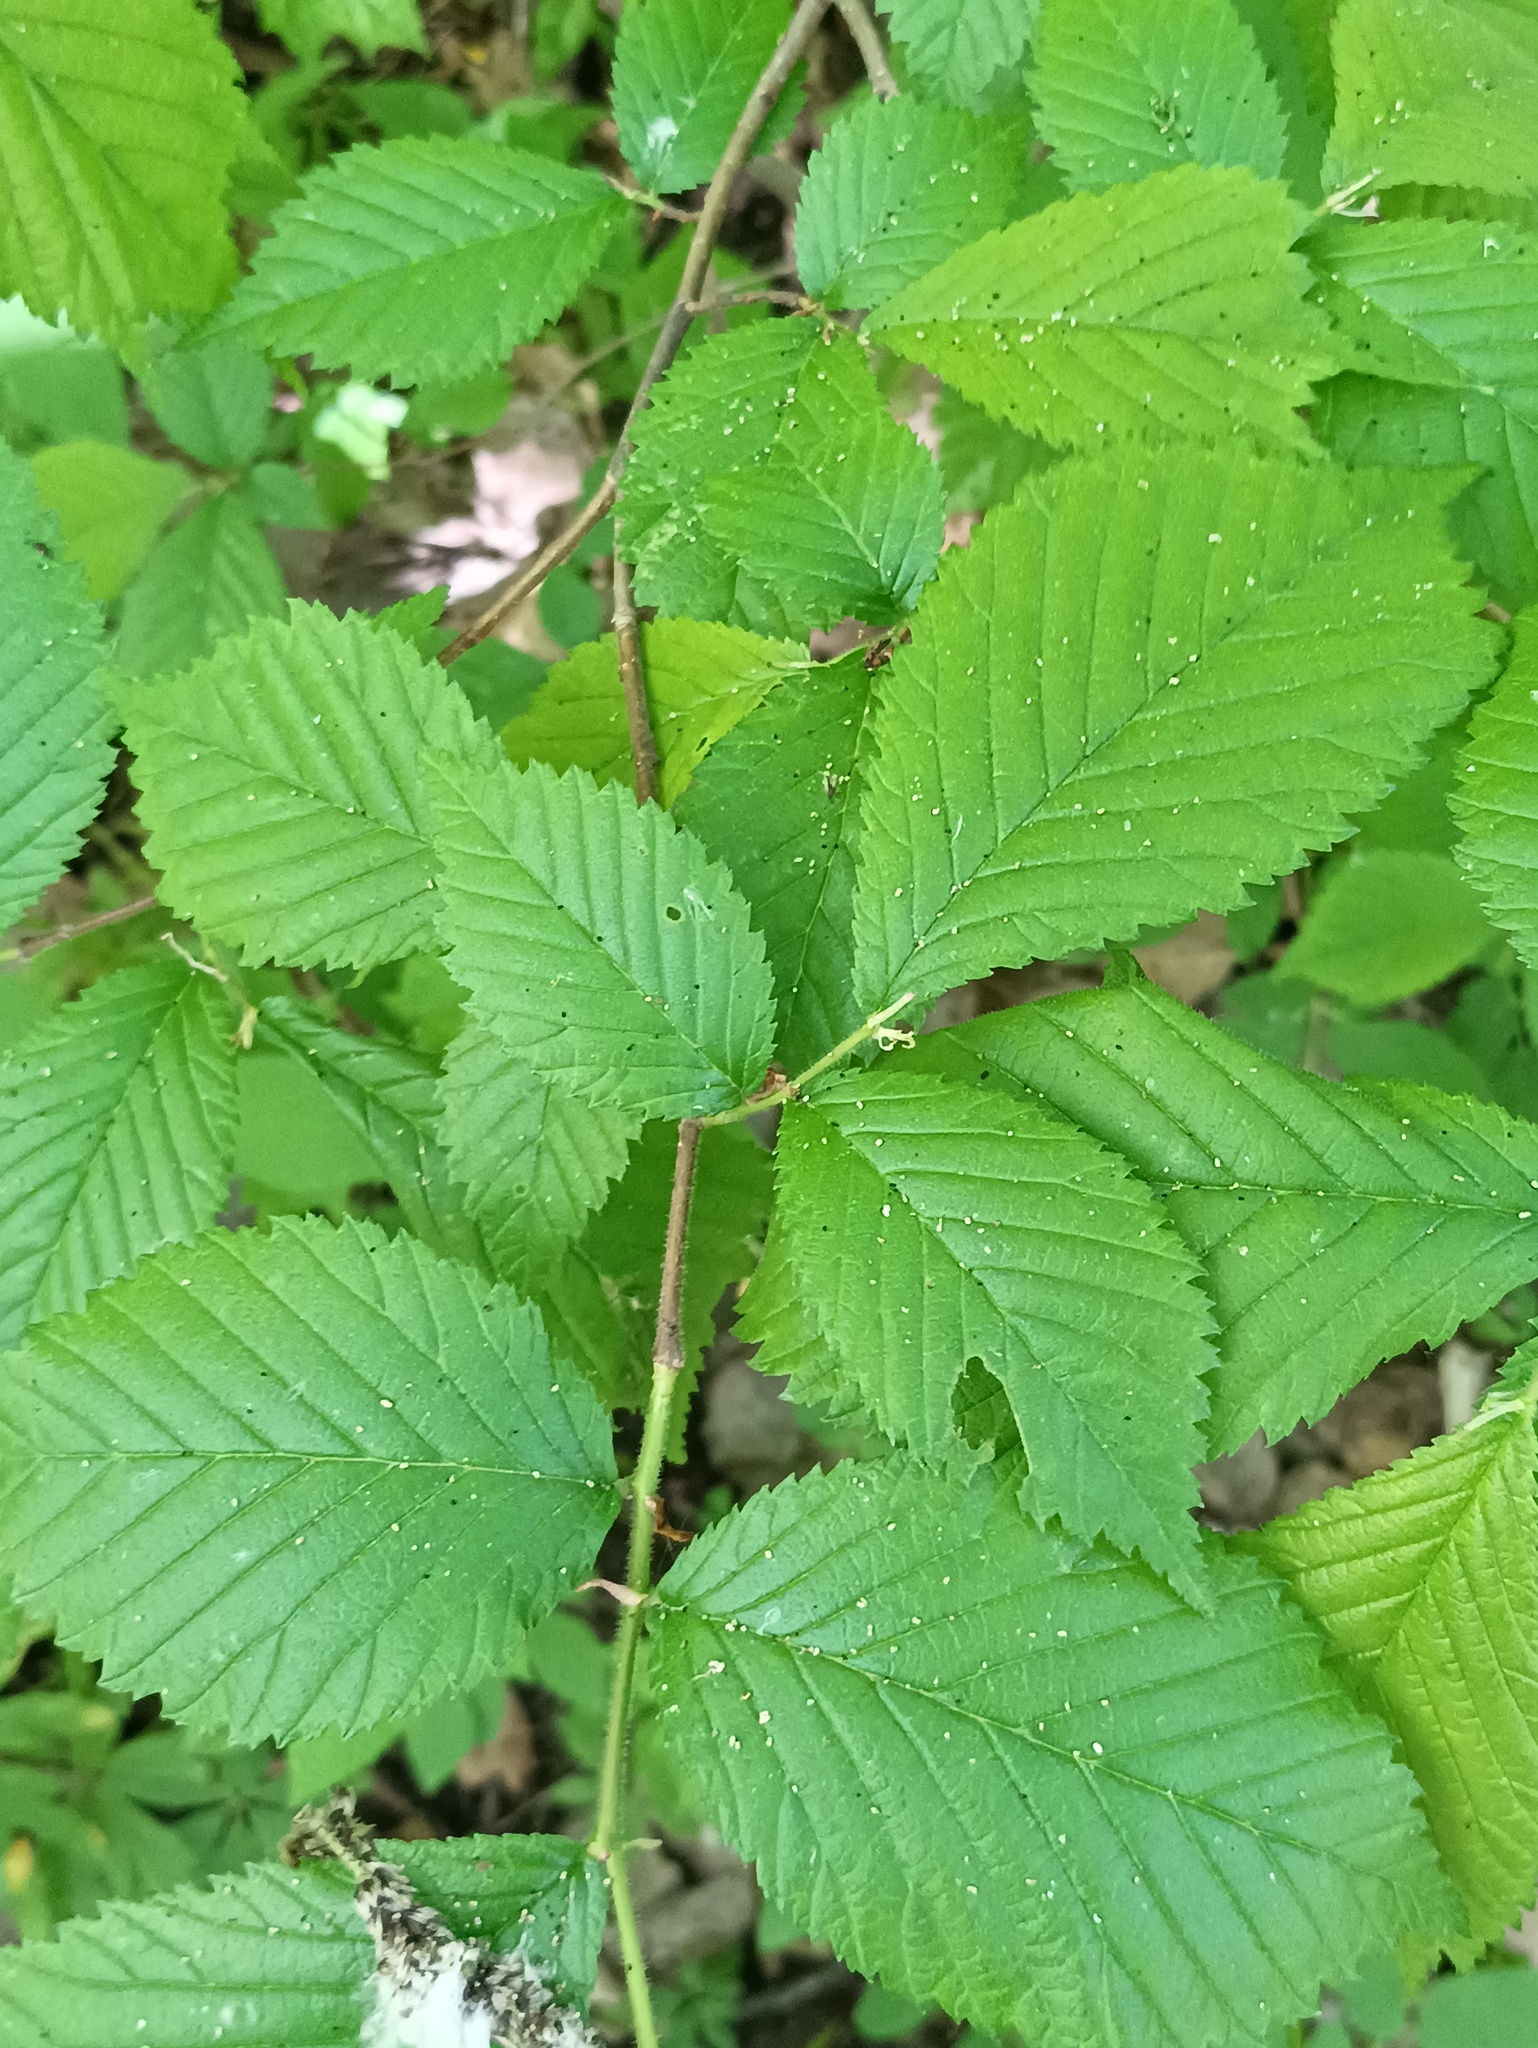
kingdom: Plantae
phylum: Tracheophyta
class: Magnoliopsida
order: Rosales
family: Ulmaceae
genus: Ulmus
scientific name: Ulmus glabra
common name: Wych elm
